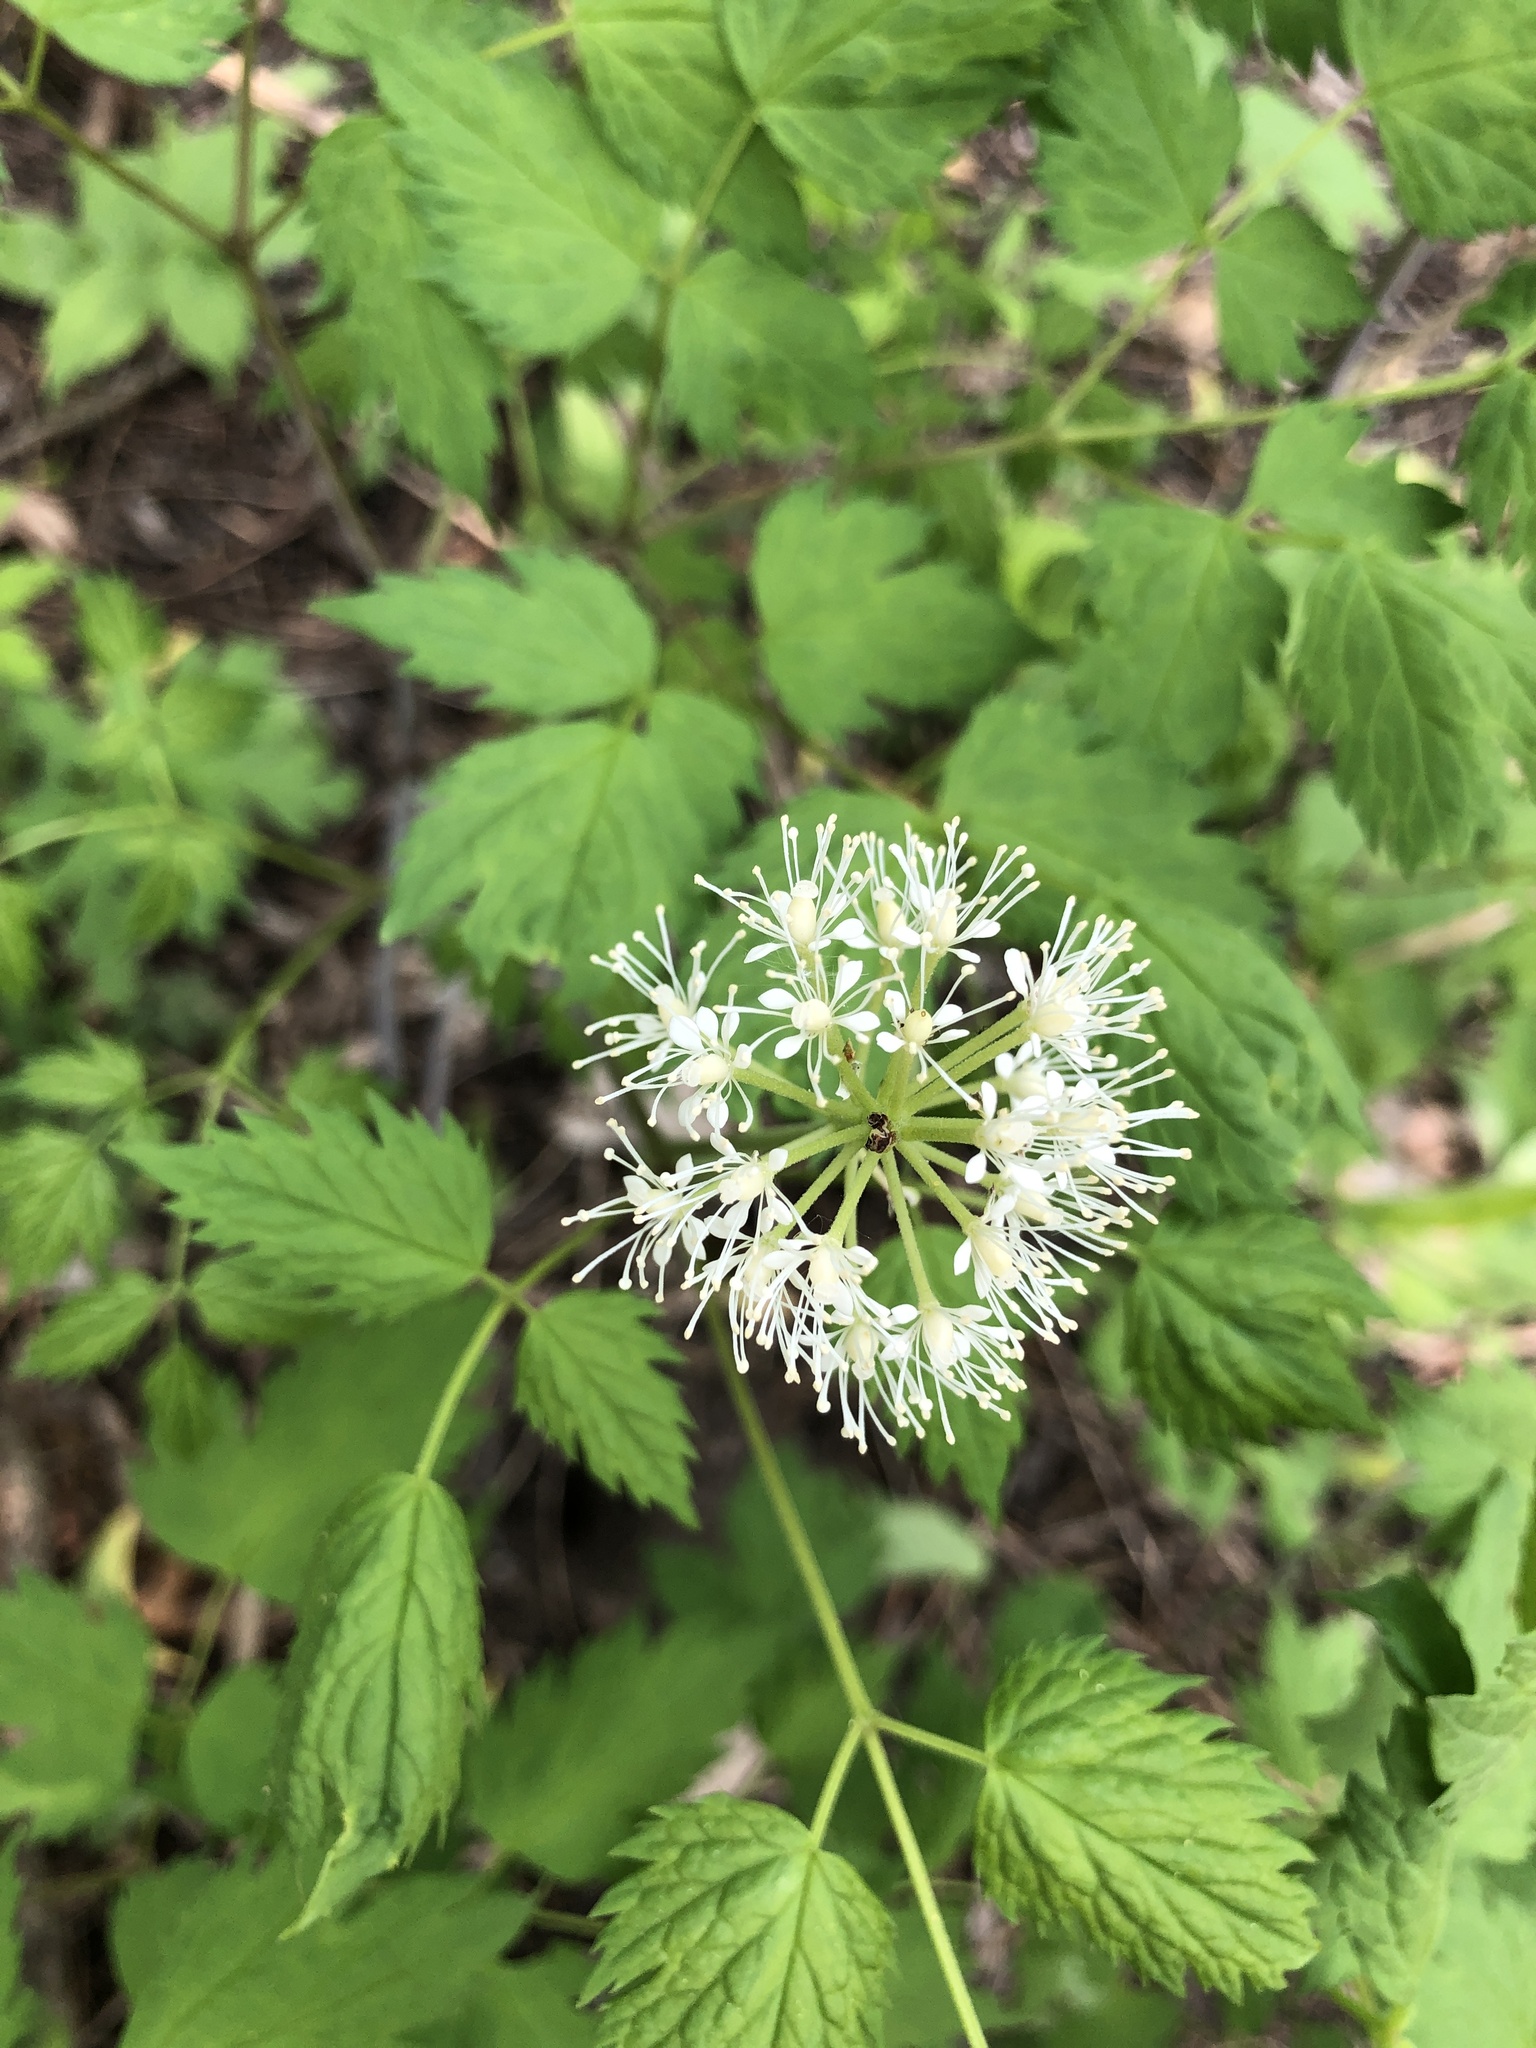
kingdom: Plantae
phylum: Tracheophyta
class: Magnoliopsida
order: Ranunculales
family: Ranunculaceae
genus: Actaea
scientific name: Actaea rubra
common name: Red baneberry
